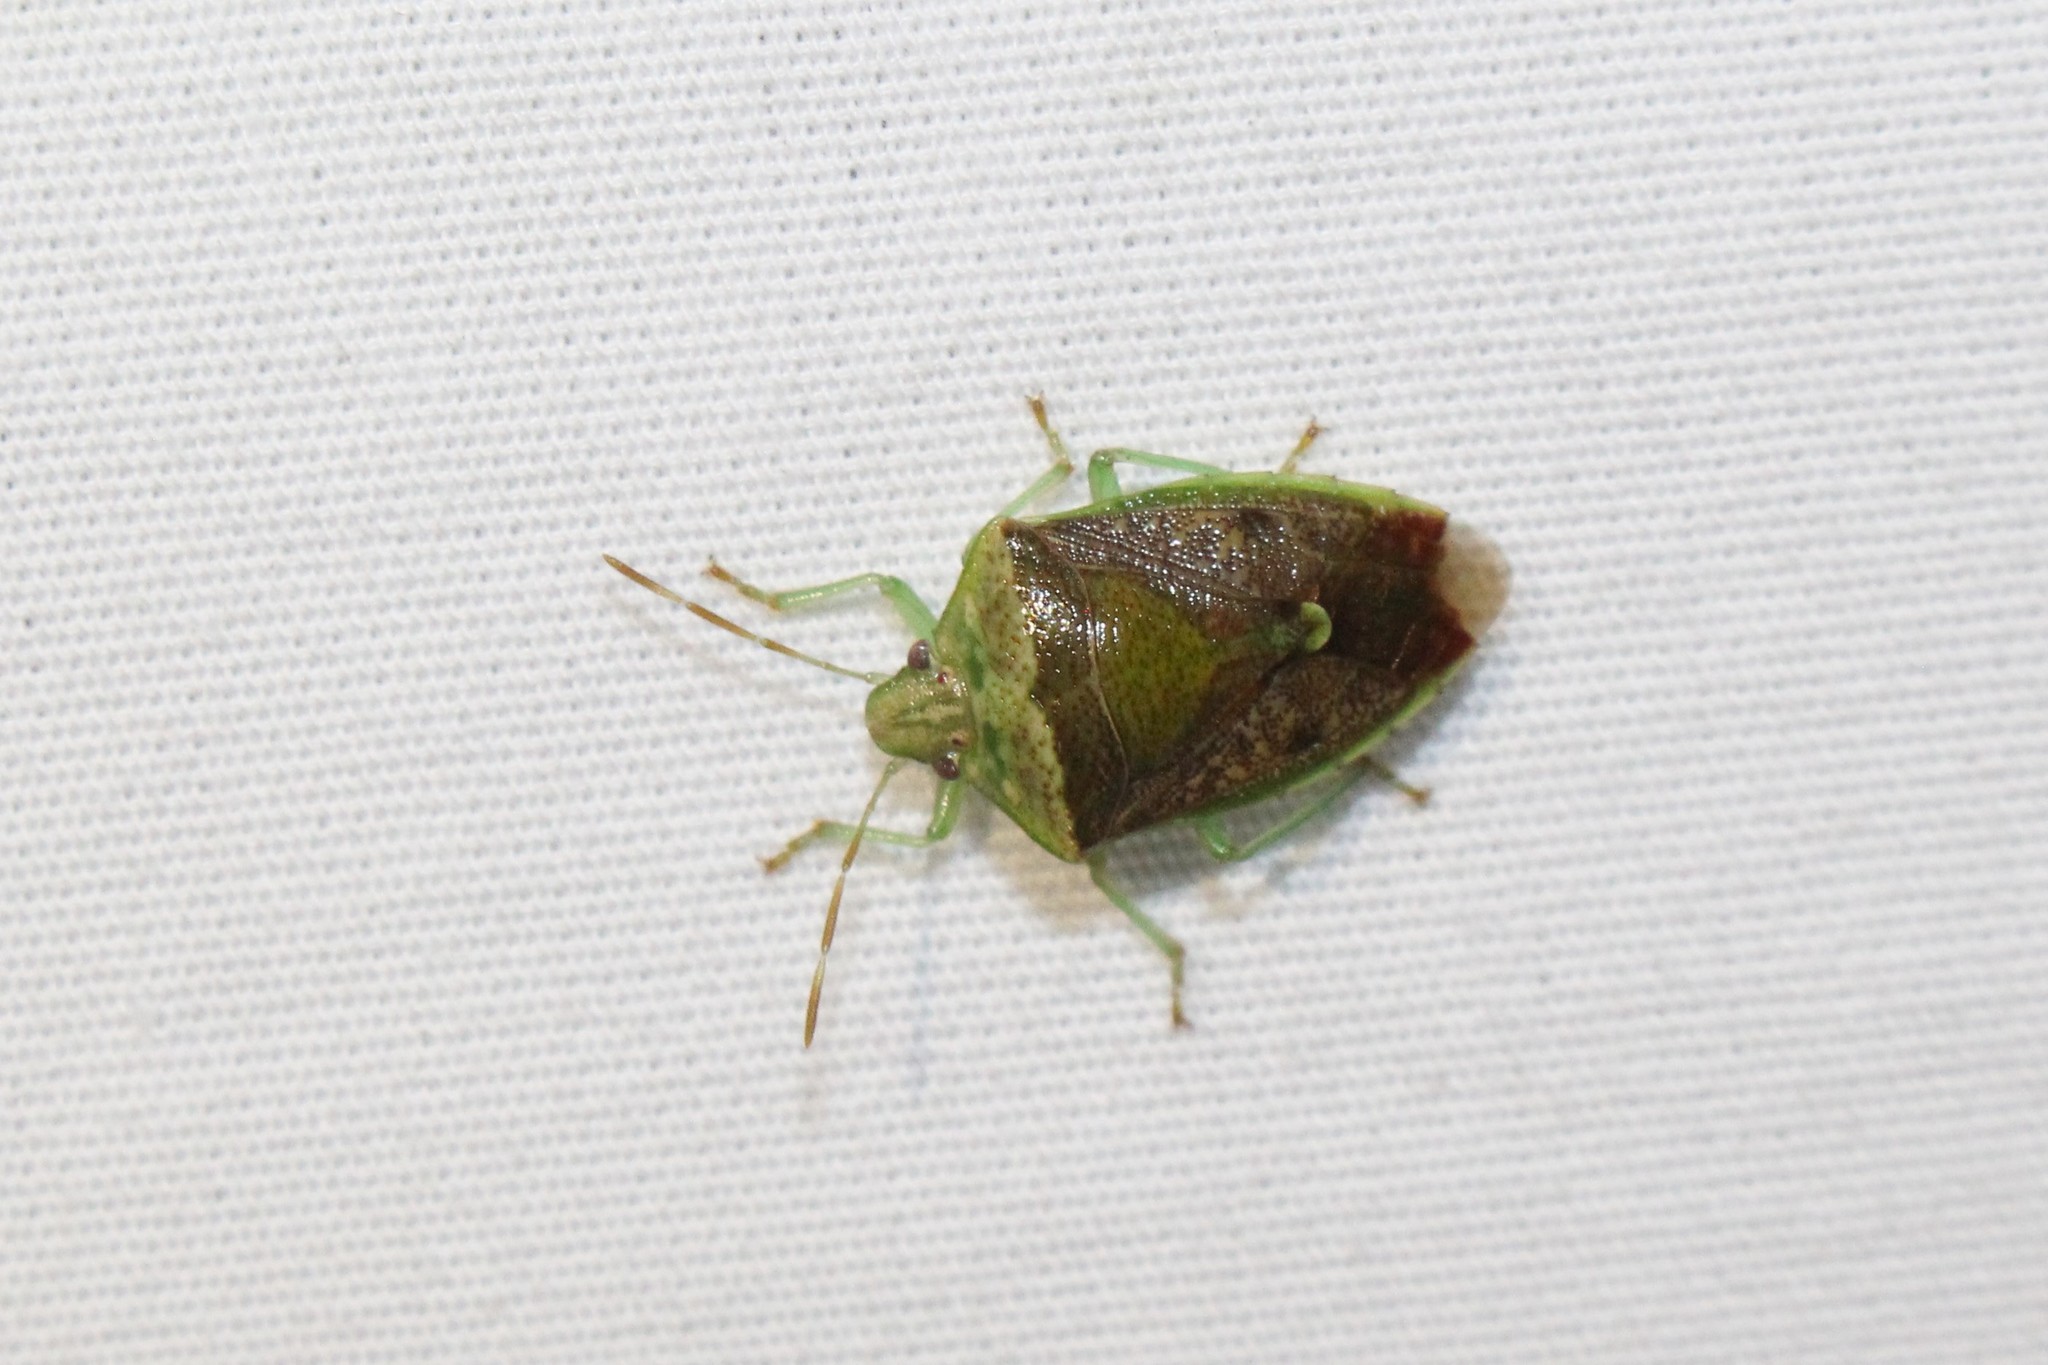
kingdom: Animalia
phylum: Arthropoda
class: Insecta
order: Hemiptera
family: Pentatomidae
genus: Banasa
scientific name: Banasa calva
